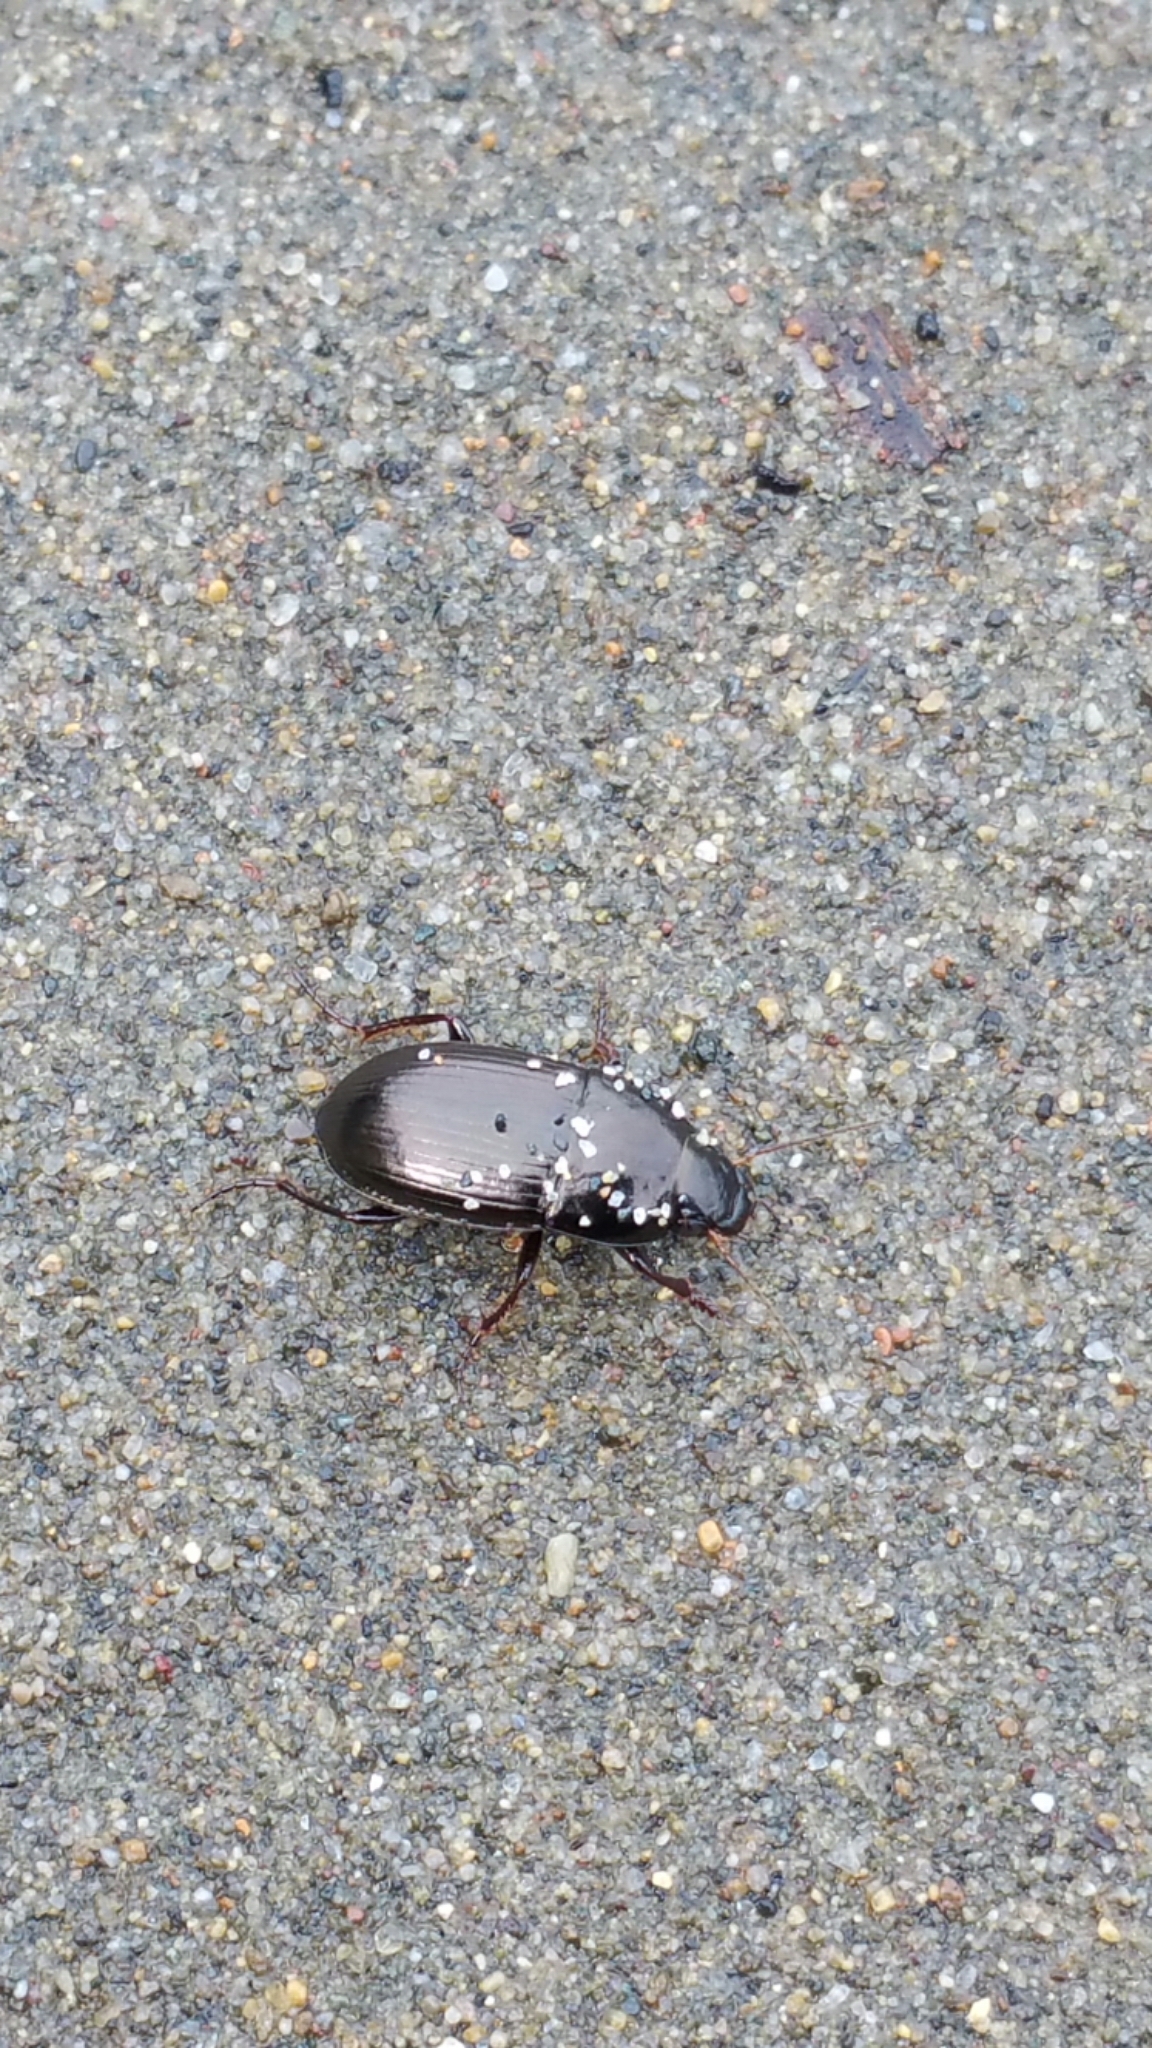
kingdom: Animalia
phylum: Arthropoda
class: Insecta
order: Coleoptera
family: Carabidae
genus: Amara
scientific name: Amara
